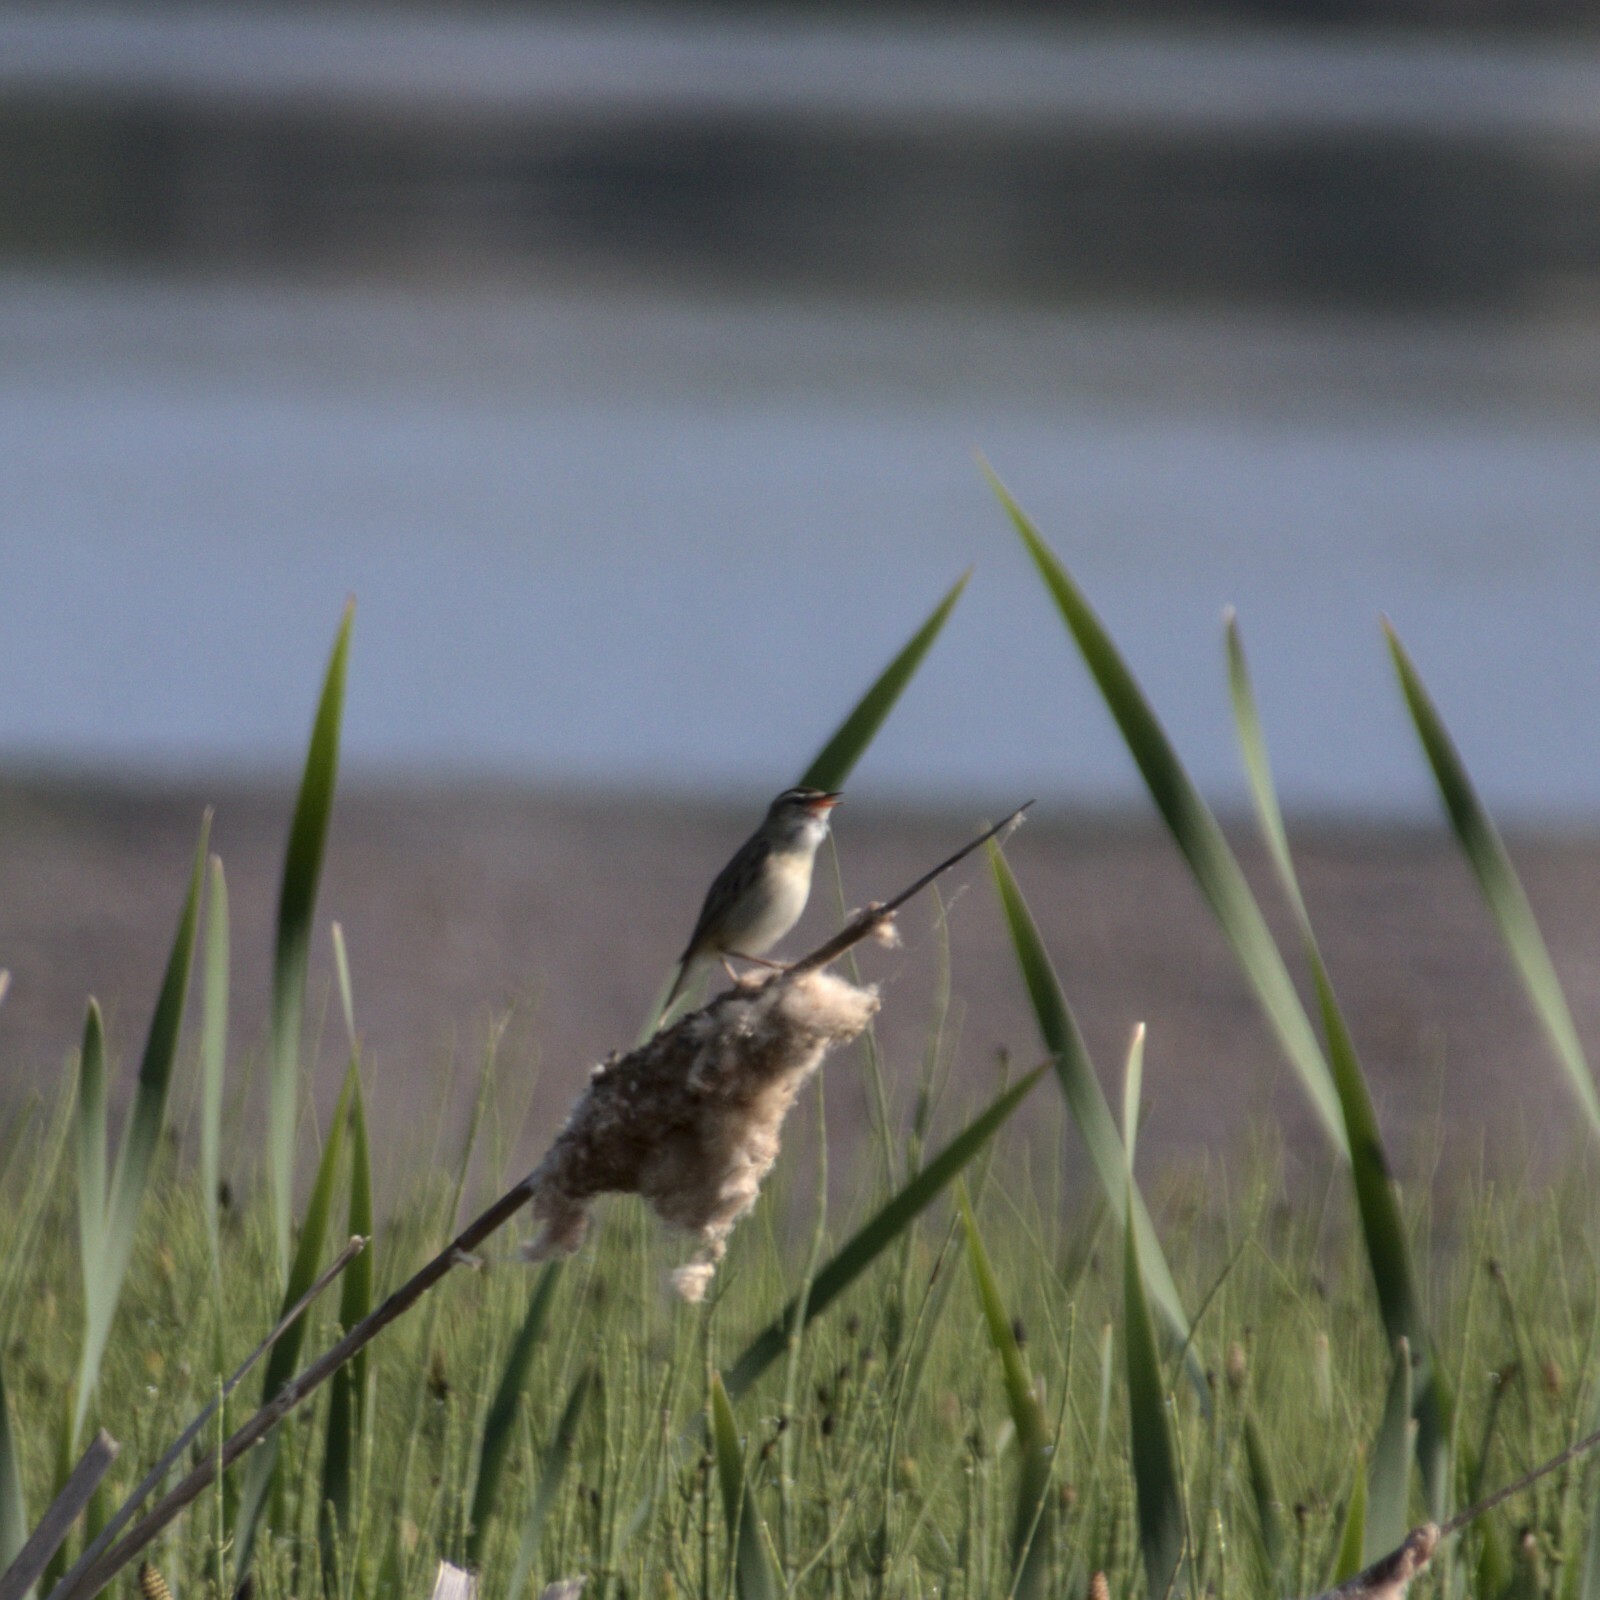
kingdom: Animalia
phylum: Chordata
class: Aves
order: Passeriformes
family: Acrocephalidae
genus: Acrocephalus
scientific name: Acrocephalus schoenobaenus
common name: Sedge warbler
